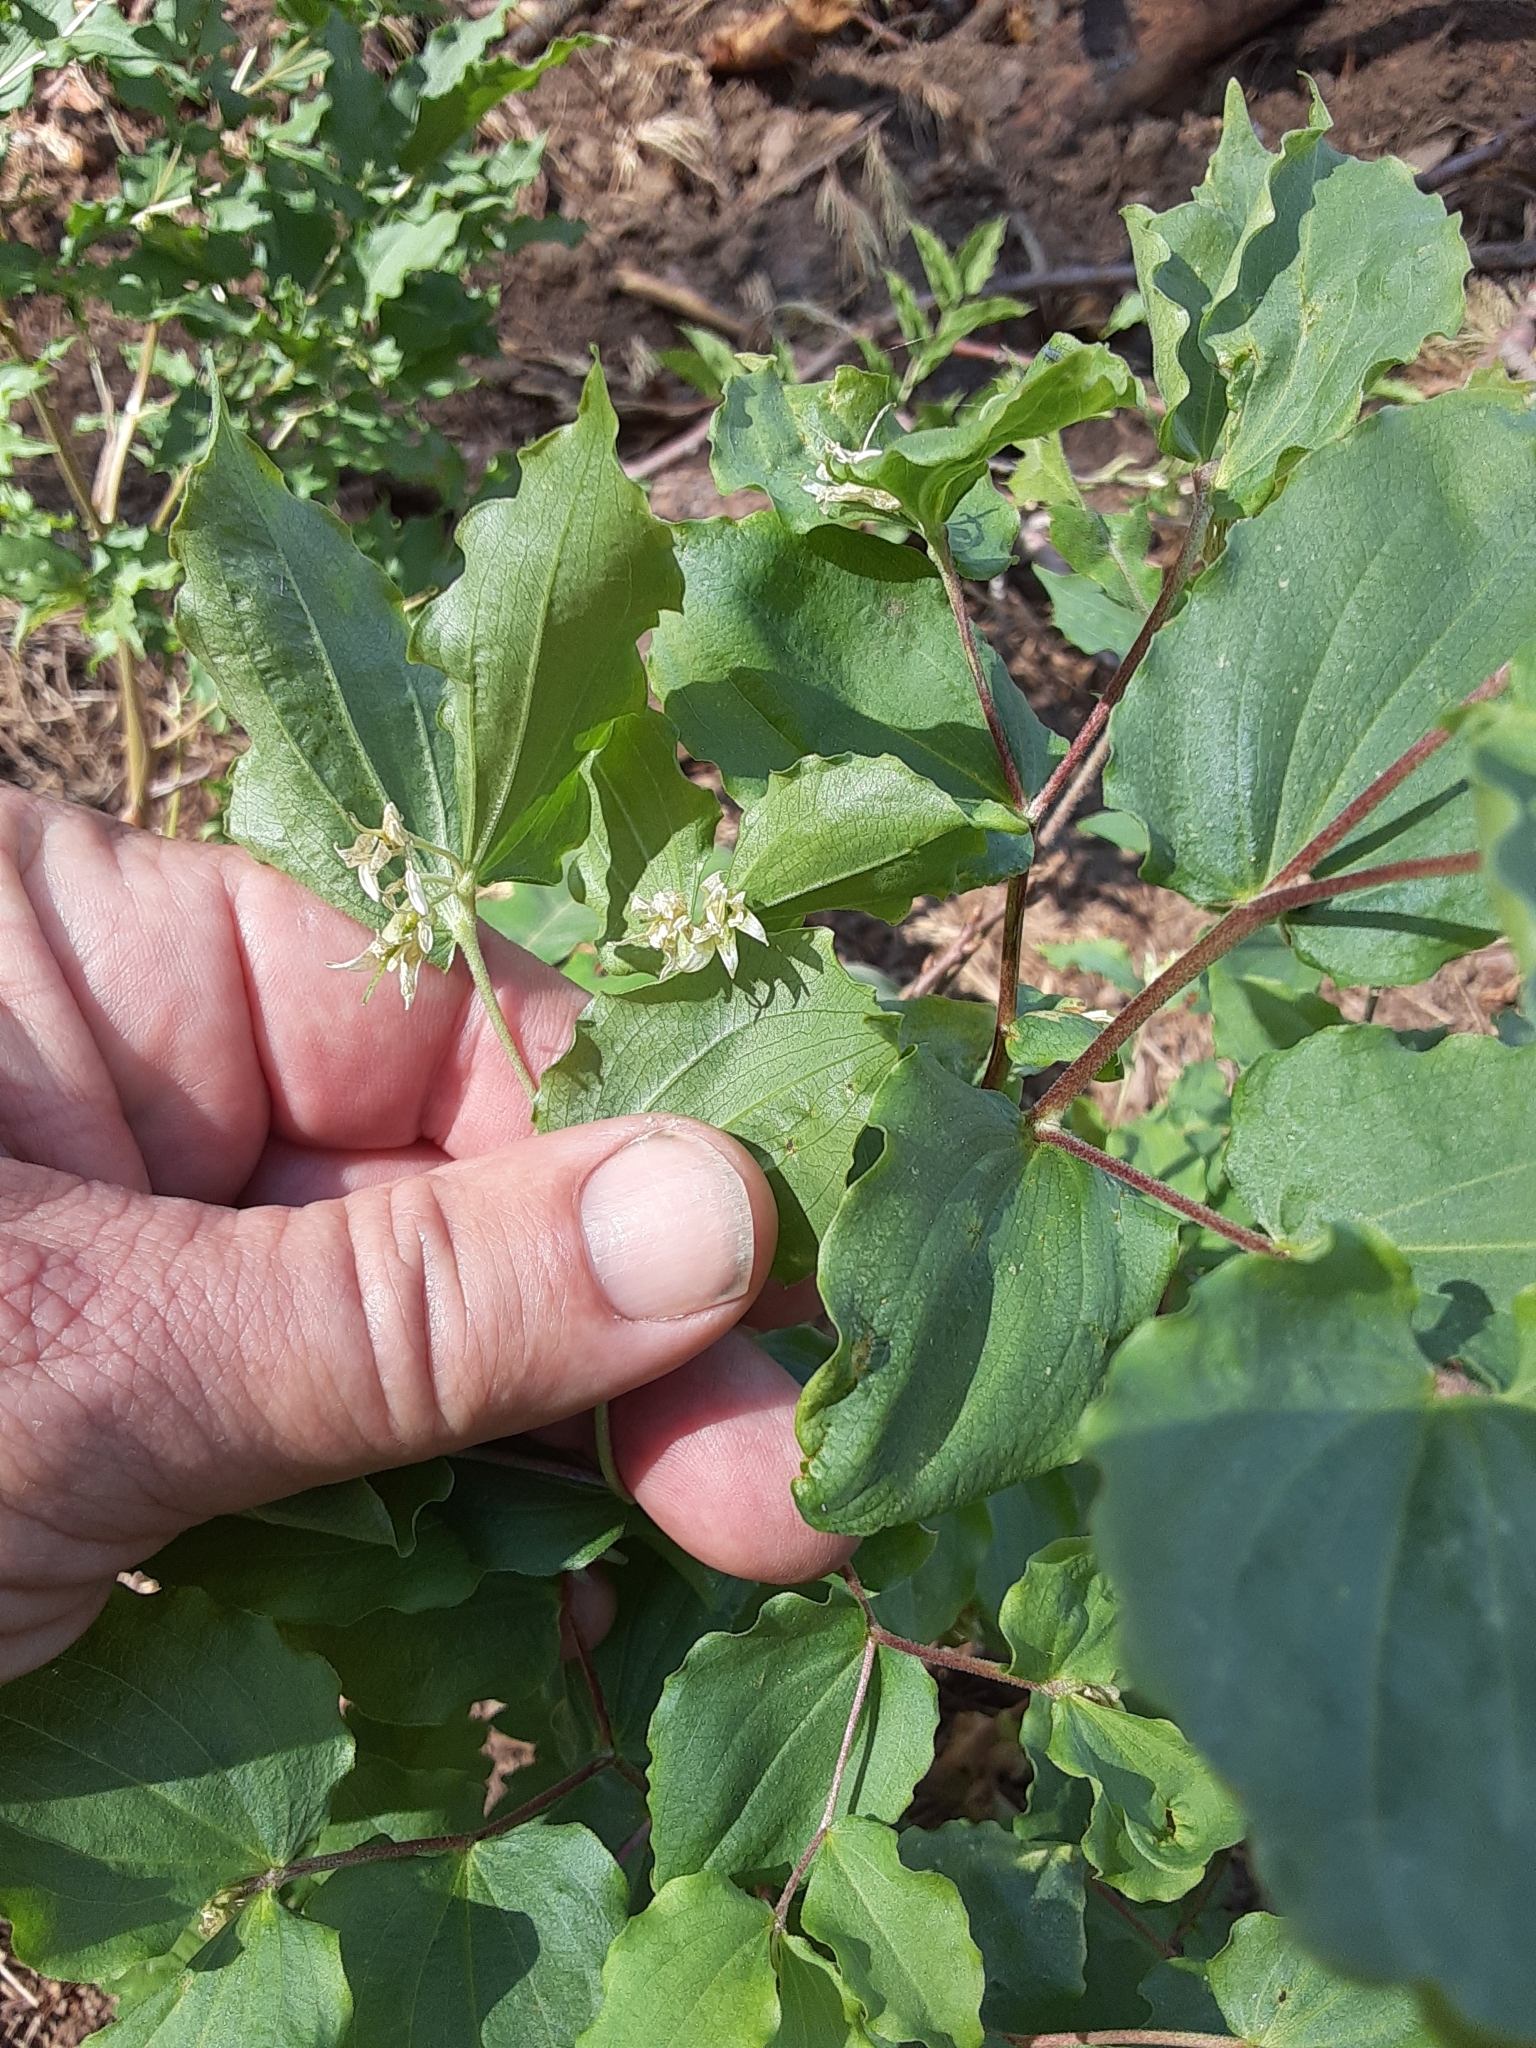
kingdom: Plantae
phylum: Tracheophyta
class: Liliopsida
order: Liliales
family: Liliaceae
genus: Prosartes
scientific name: Prosartes hookeri
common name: Fairy-bells
